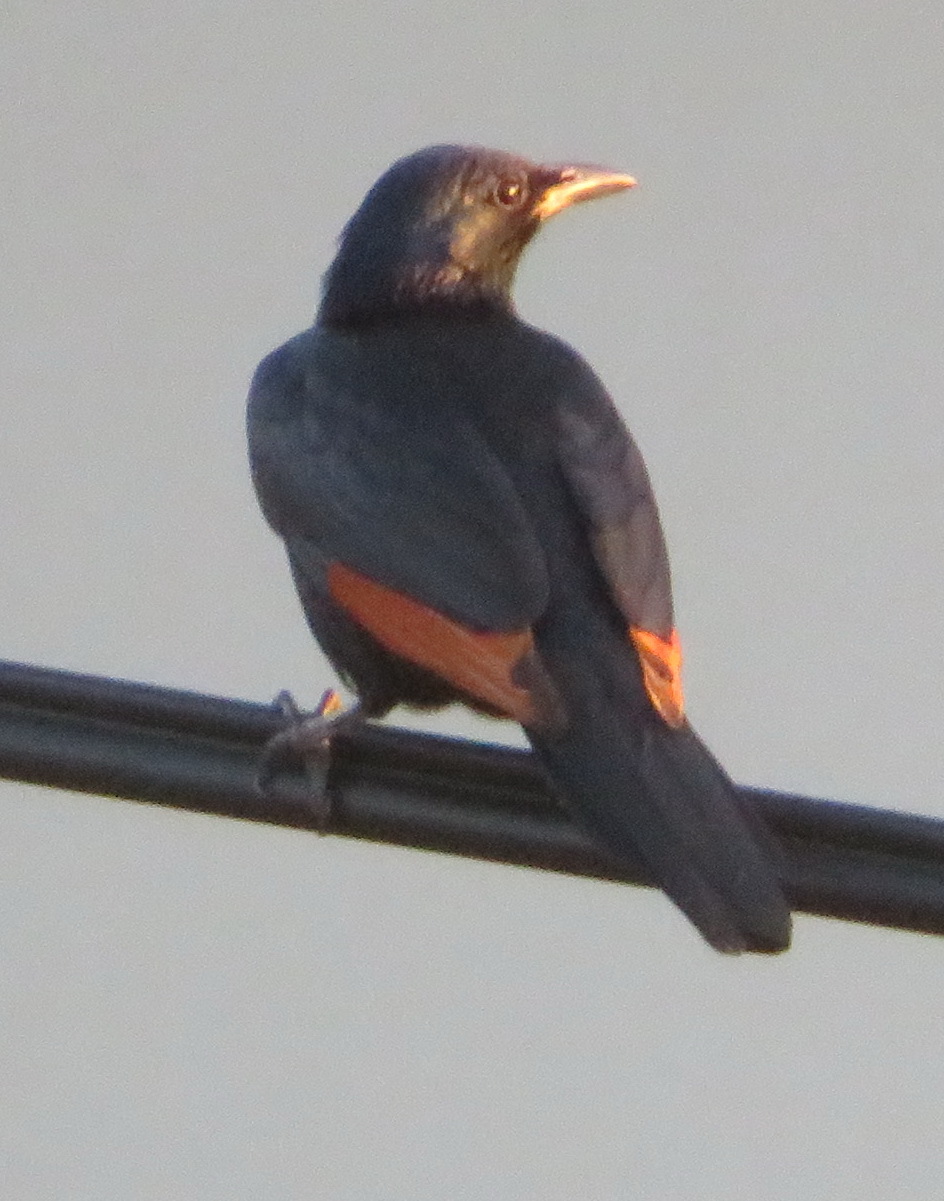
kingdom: Animalia
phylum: Chordata
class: Aves
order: Passeriformes
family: Sturnidae
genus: Onychognathus
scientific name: Onychognathus morio
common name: Red-winged starling
